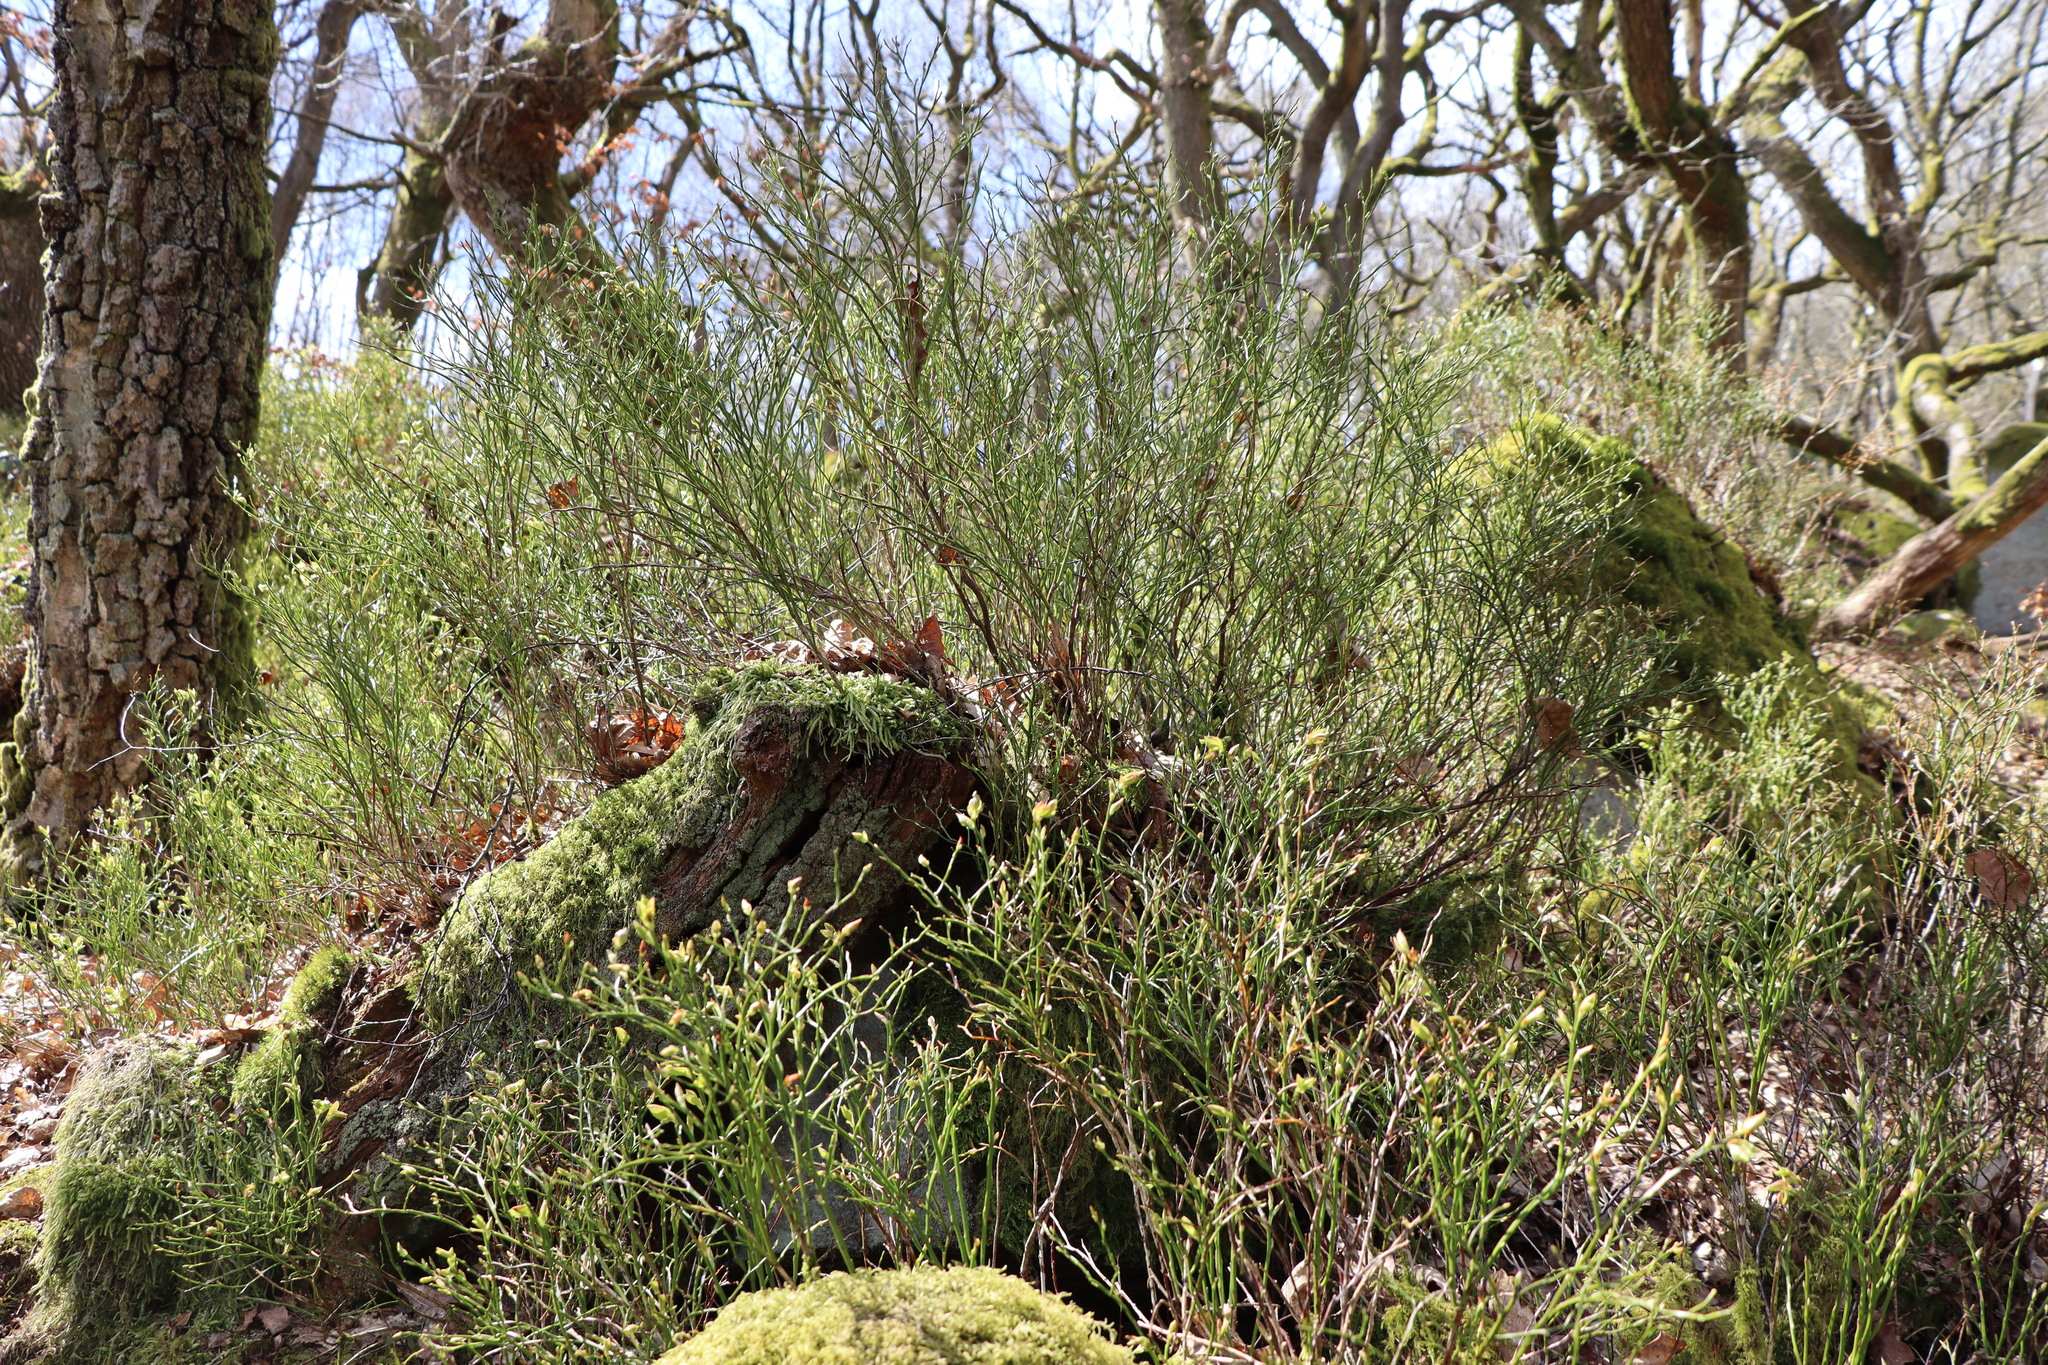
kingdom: Plantae
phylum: Tracheophyta
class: Magnoliopsida
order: Ericales
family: Ericaceae
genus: Vaccinium
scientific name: Vaccinium myrtillus
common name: Bilberry
